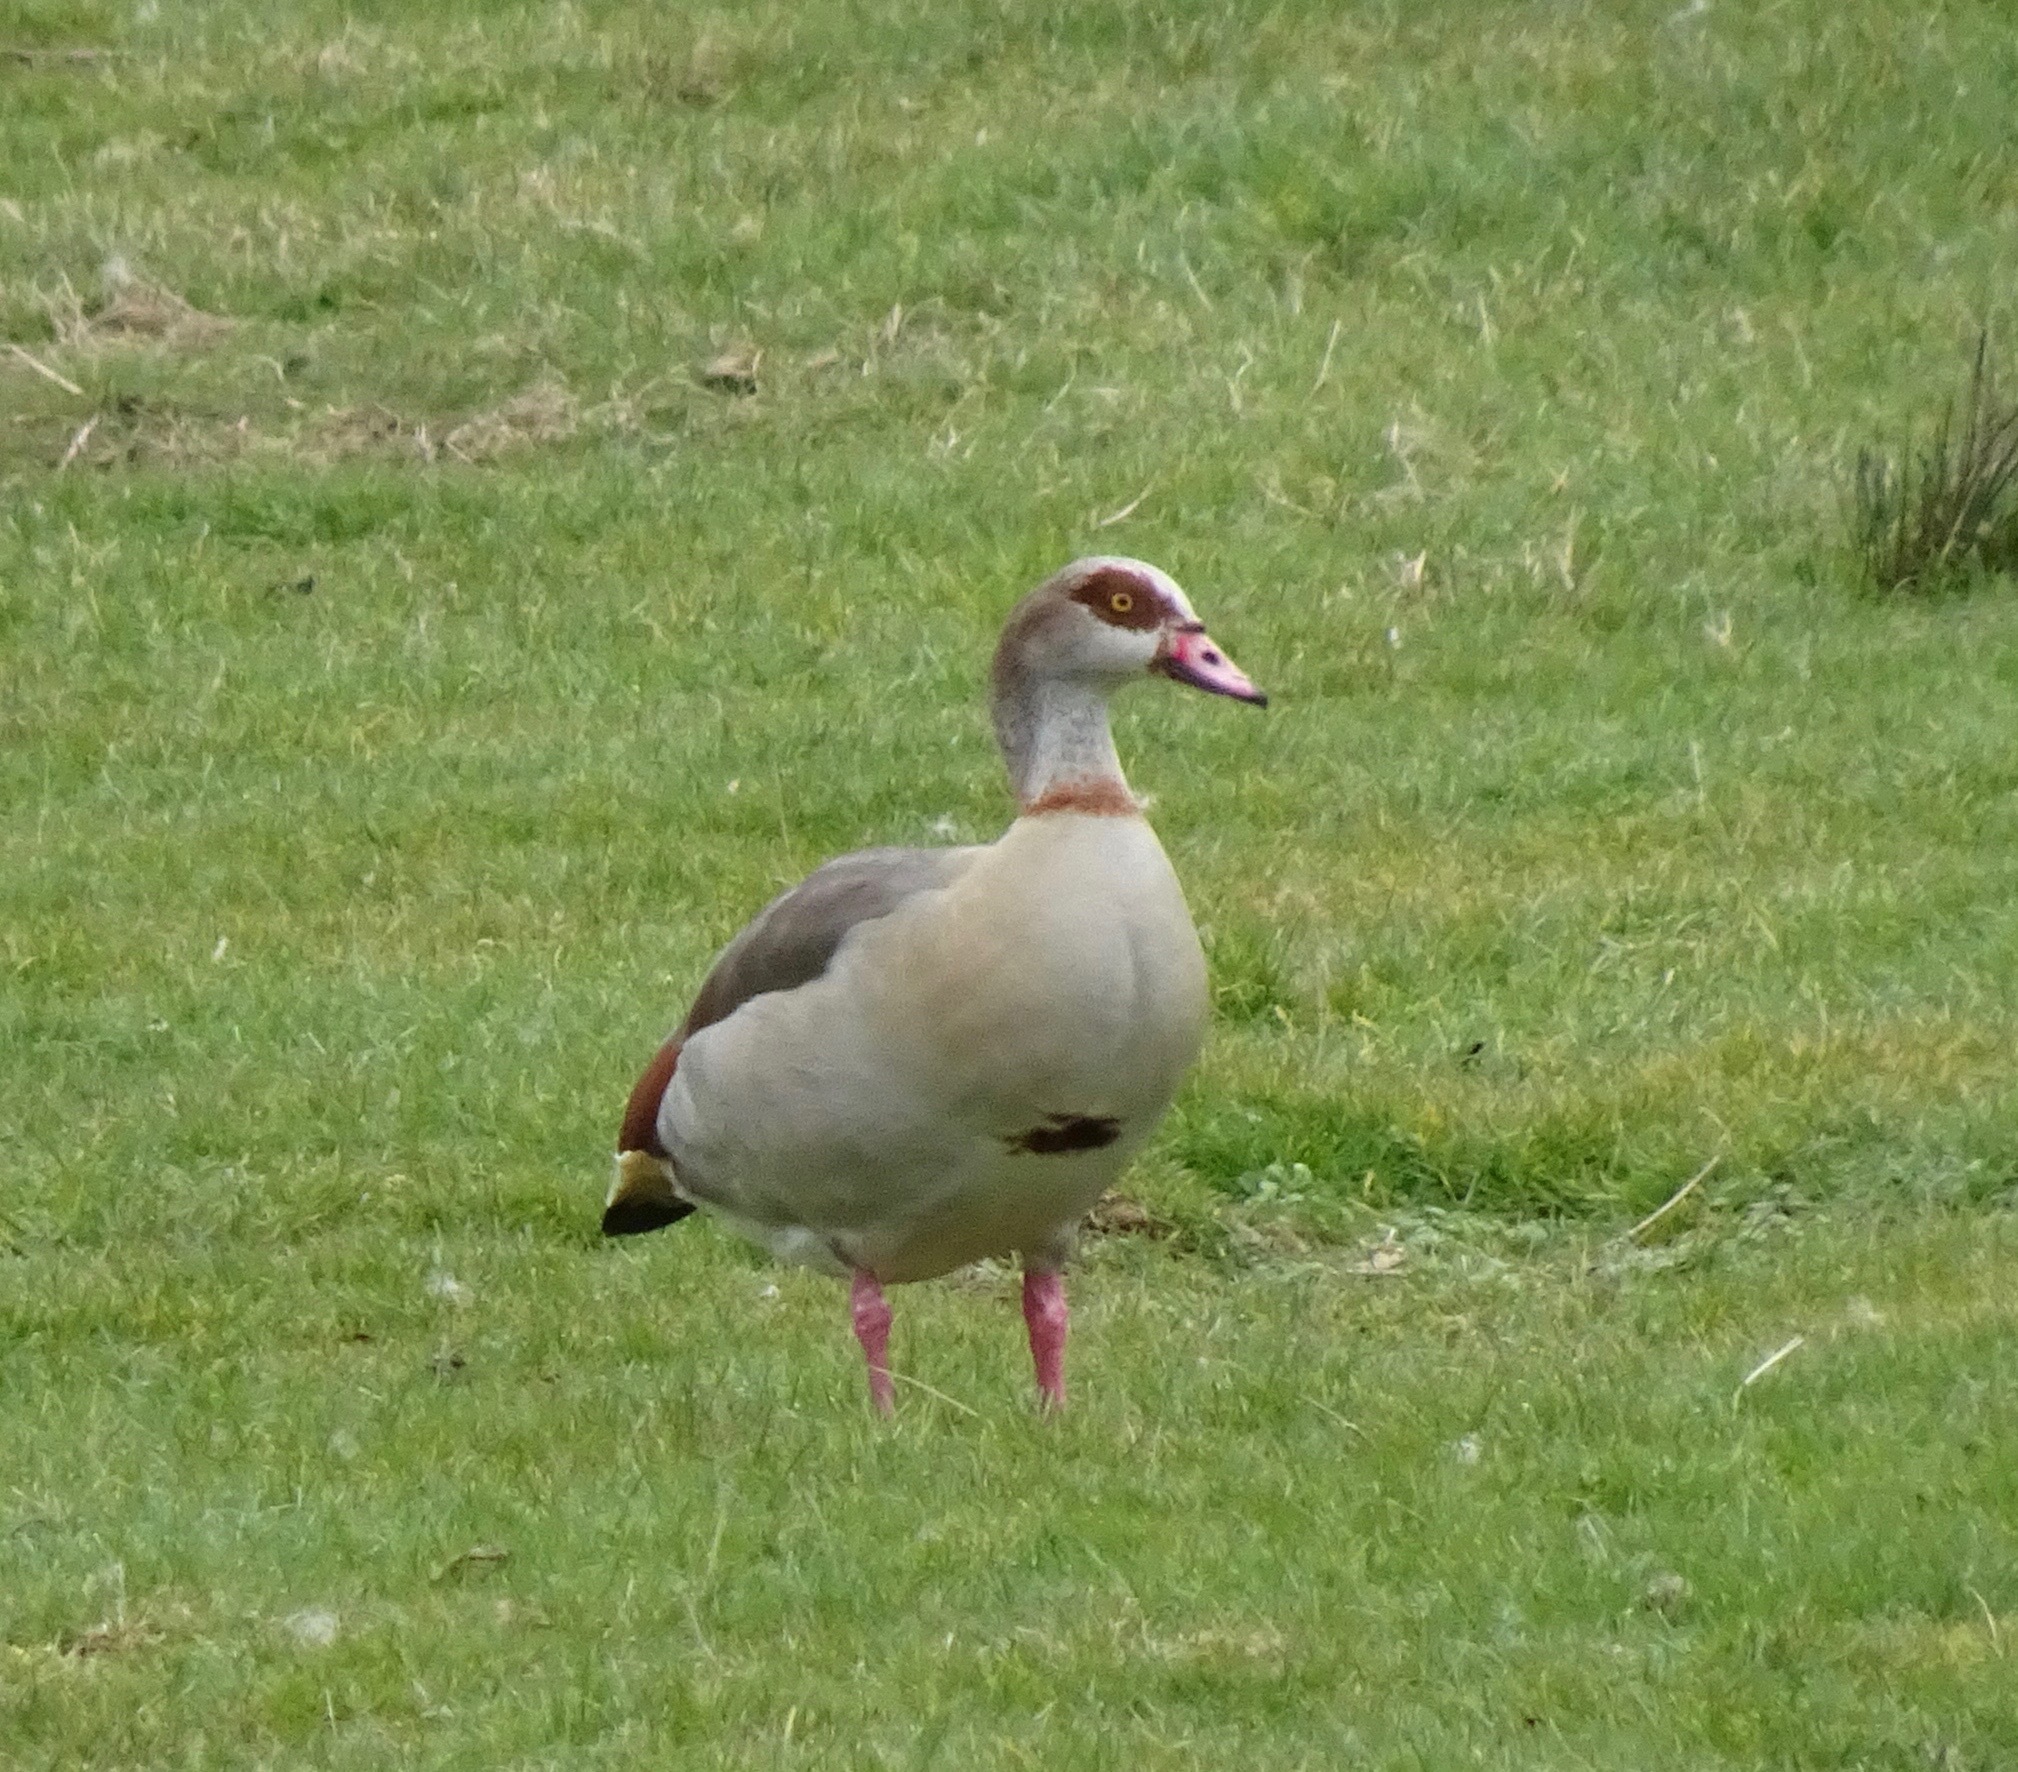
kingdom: Animalia
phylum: Chordata
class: Aves
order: Anseriformes
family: Anatidae
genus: Alopochen
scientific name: Alopochen aegyptiaca
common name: Egyptian goose
